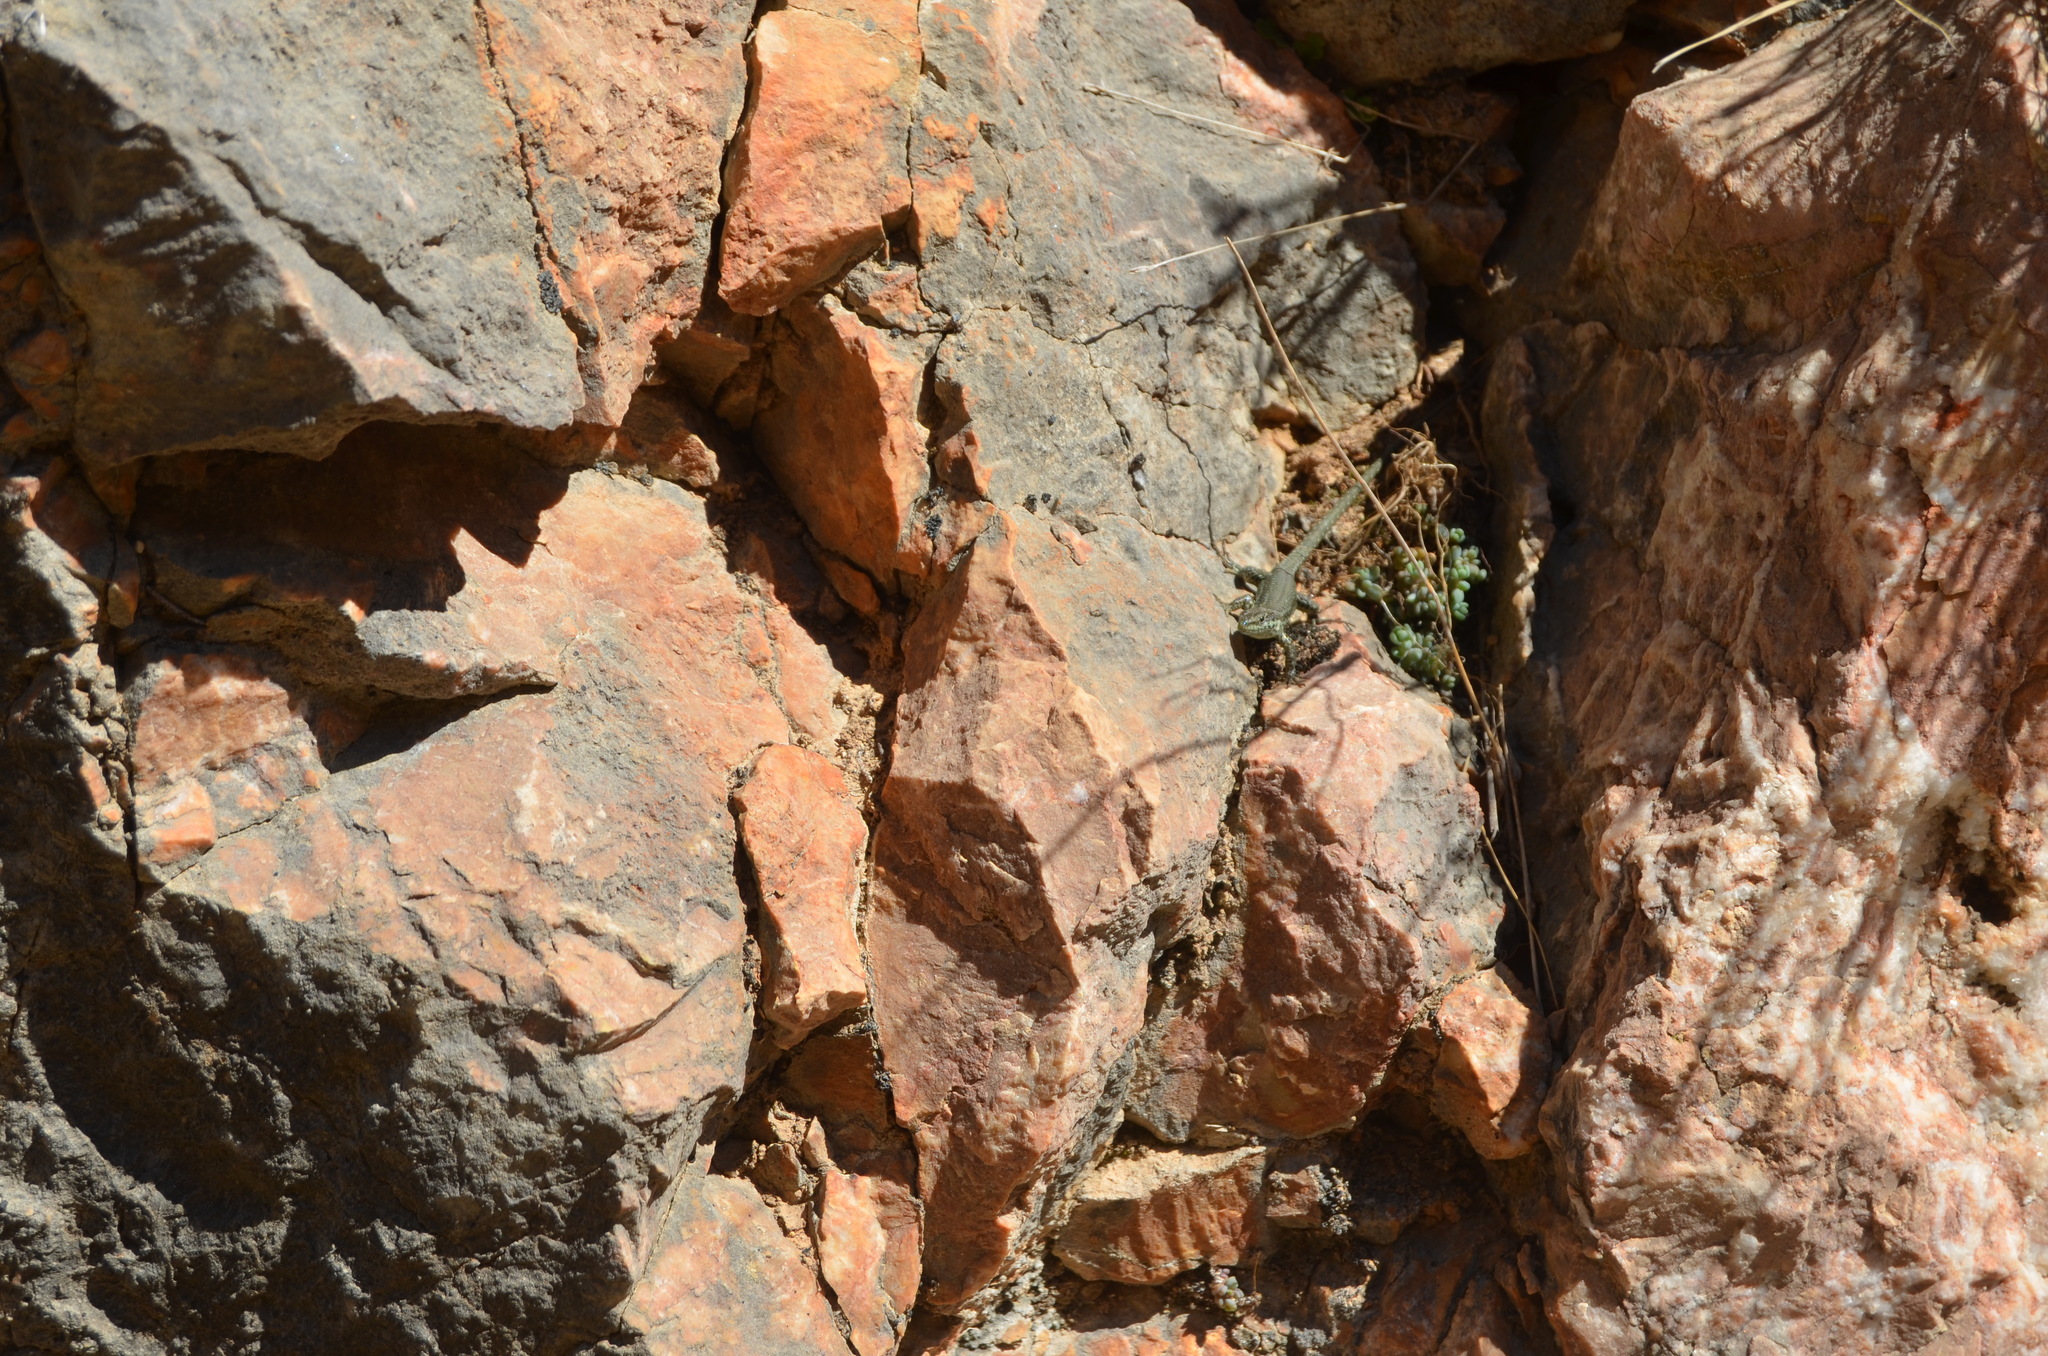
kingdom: Animalia
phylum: Chordata
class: Squamata
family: Lacertidae
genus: Podarcis
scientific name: Podarcis liolepis
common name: Catalonian wall lizard
